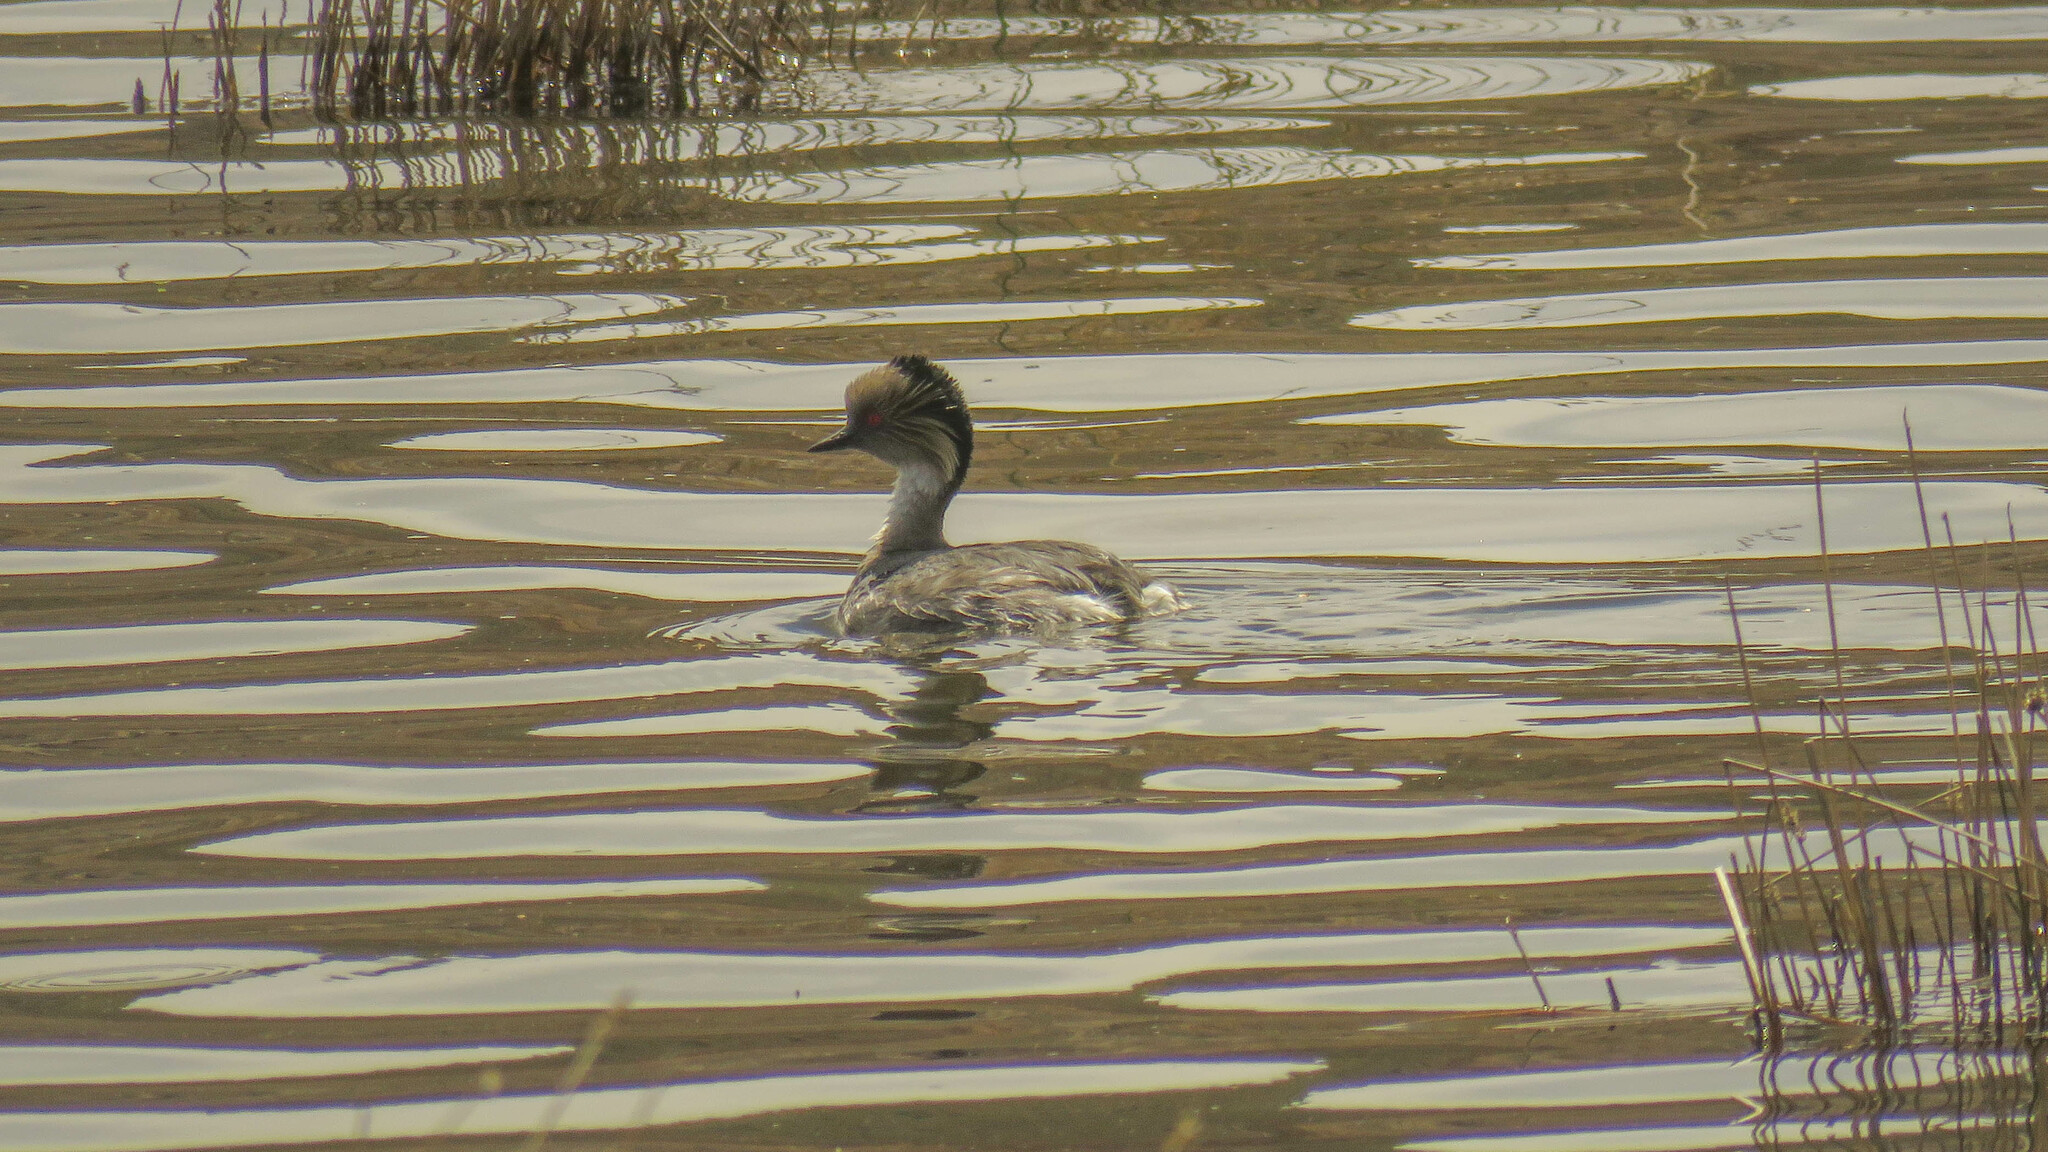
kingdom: Animalia
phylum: Chordata
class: Aves
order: Podicipediformes
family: Podicipedidae
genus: Podiceps
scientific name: Podiceps occipitalis
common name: Silvery grebe
